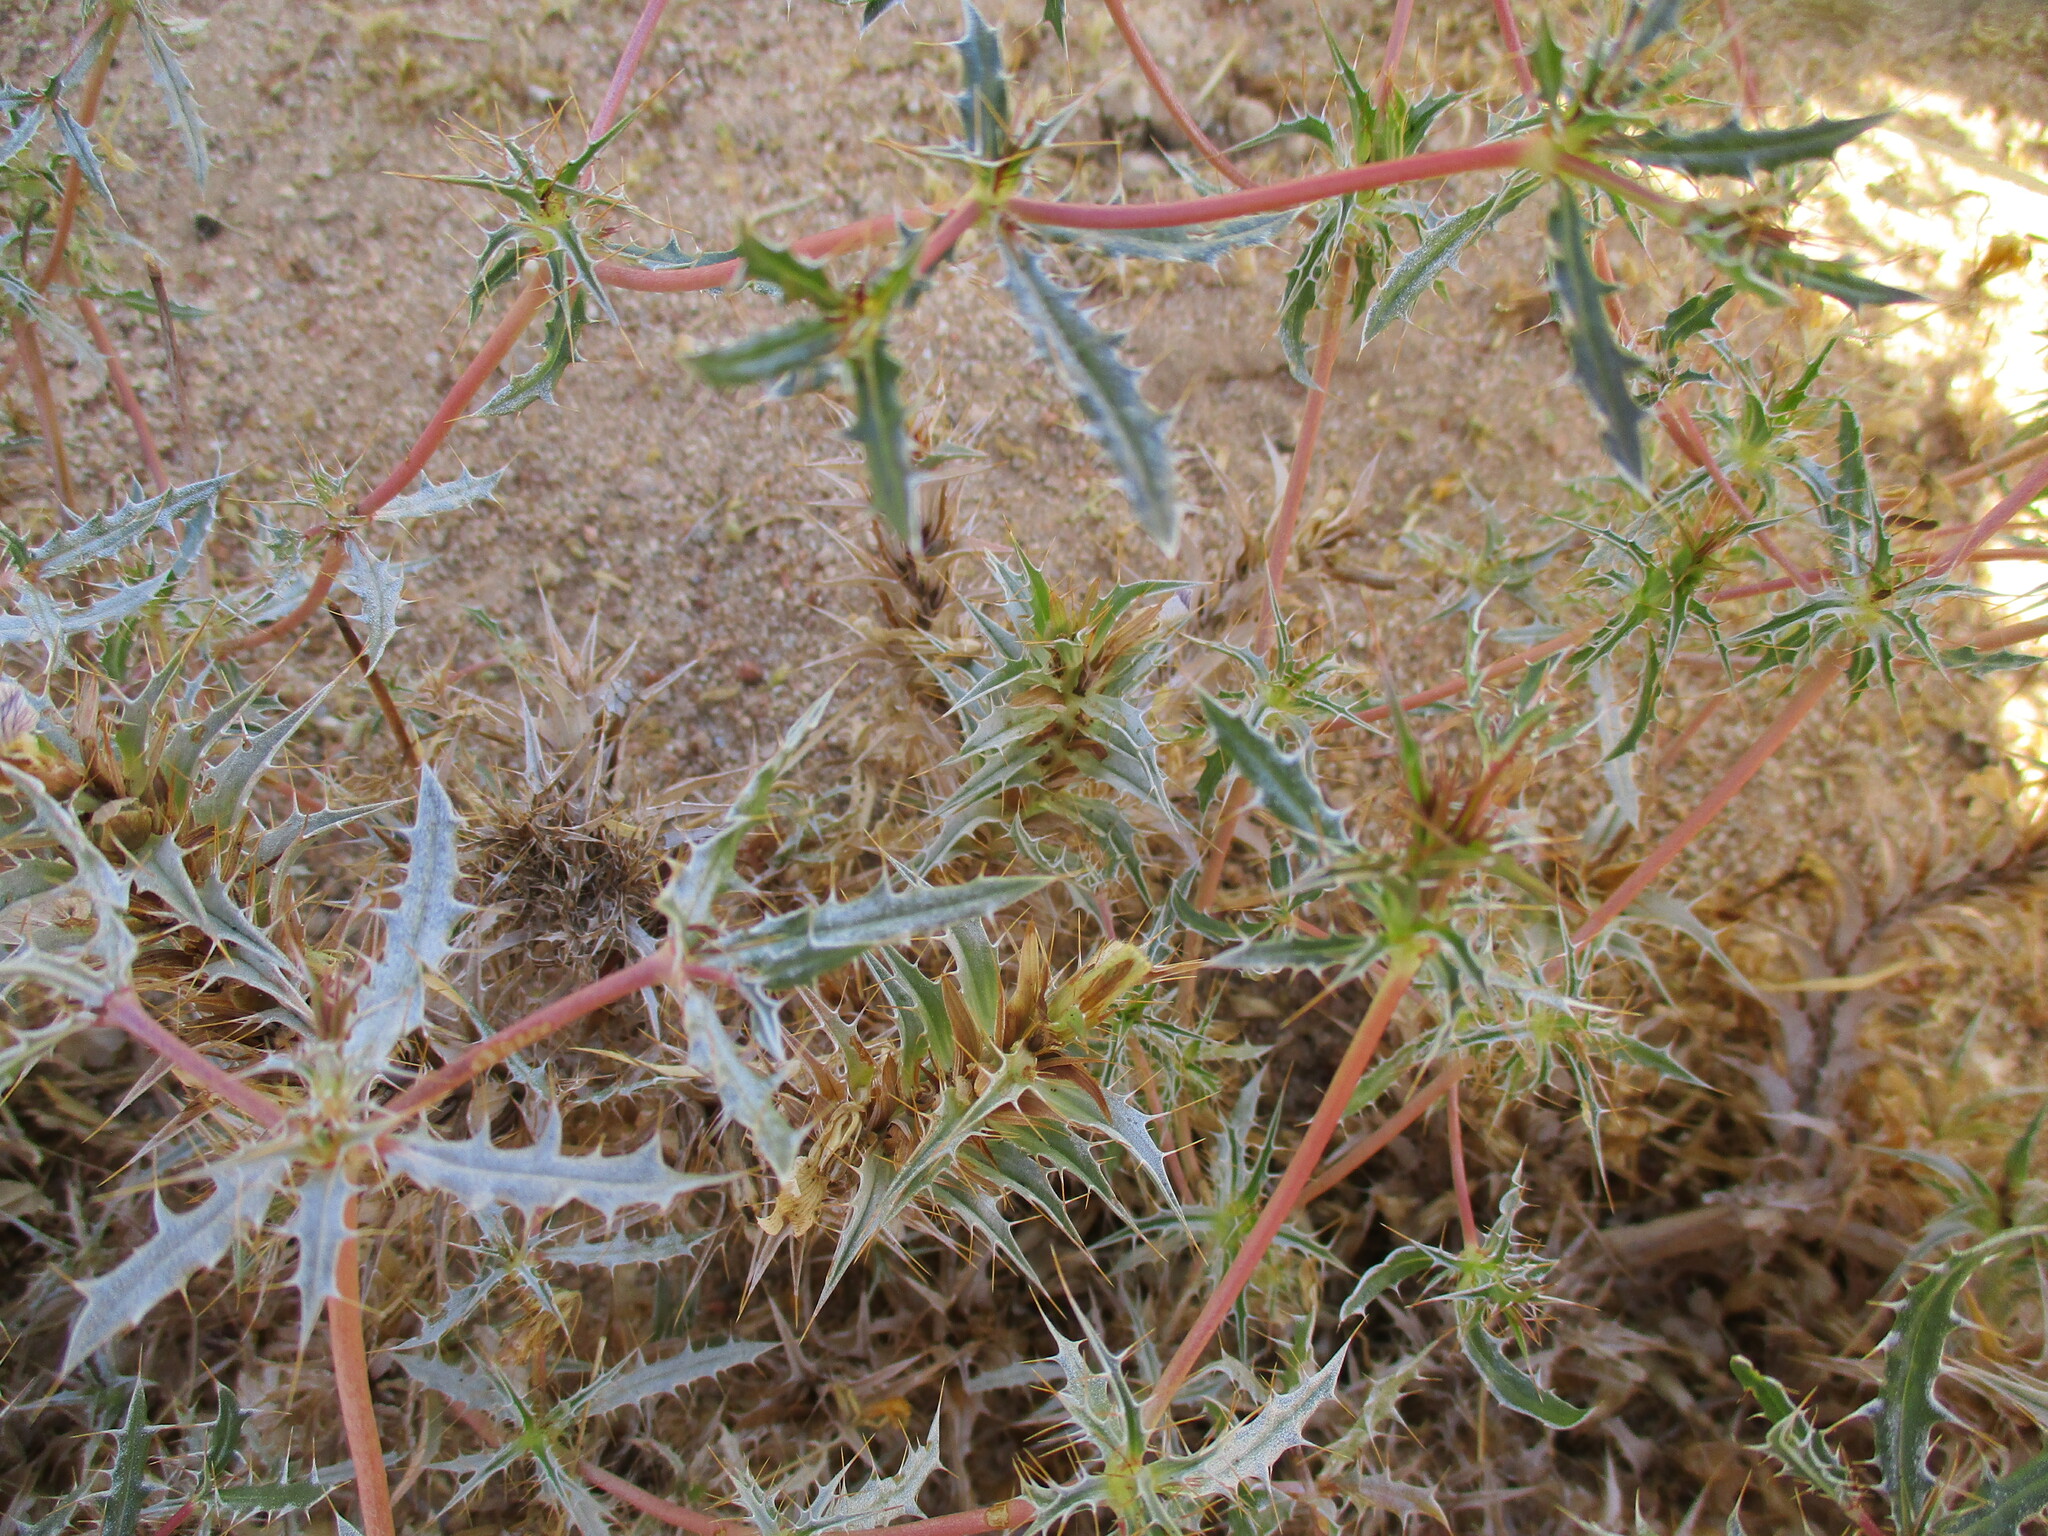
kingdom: Plantae
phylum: Tracheophyta
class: Magnoliopsida
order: Lamiales
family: Acanthaceae
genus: Blepharis
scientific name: Blepharis obmitrata
